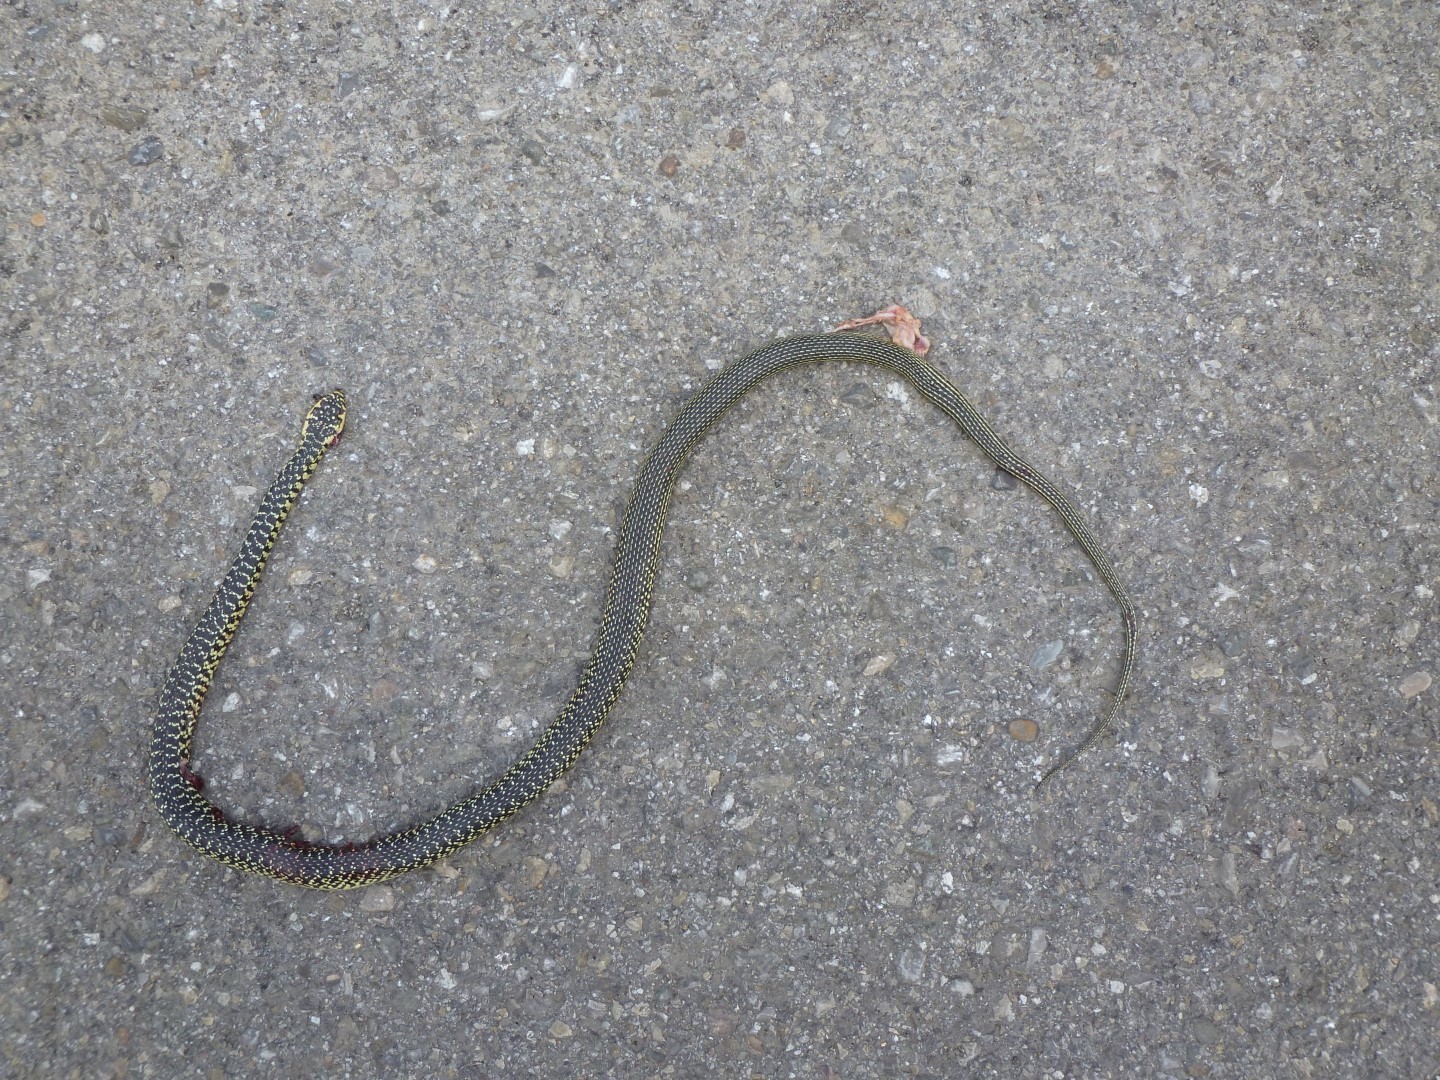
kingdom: Animalia
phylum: Chordata
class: Squamata
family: Colubridae
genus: Hierophis
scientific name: Hierophis viridiflavus
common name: Green whip snake
